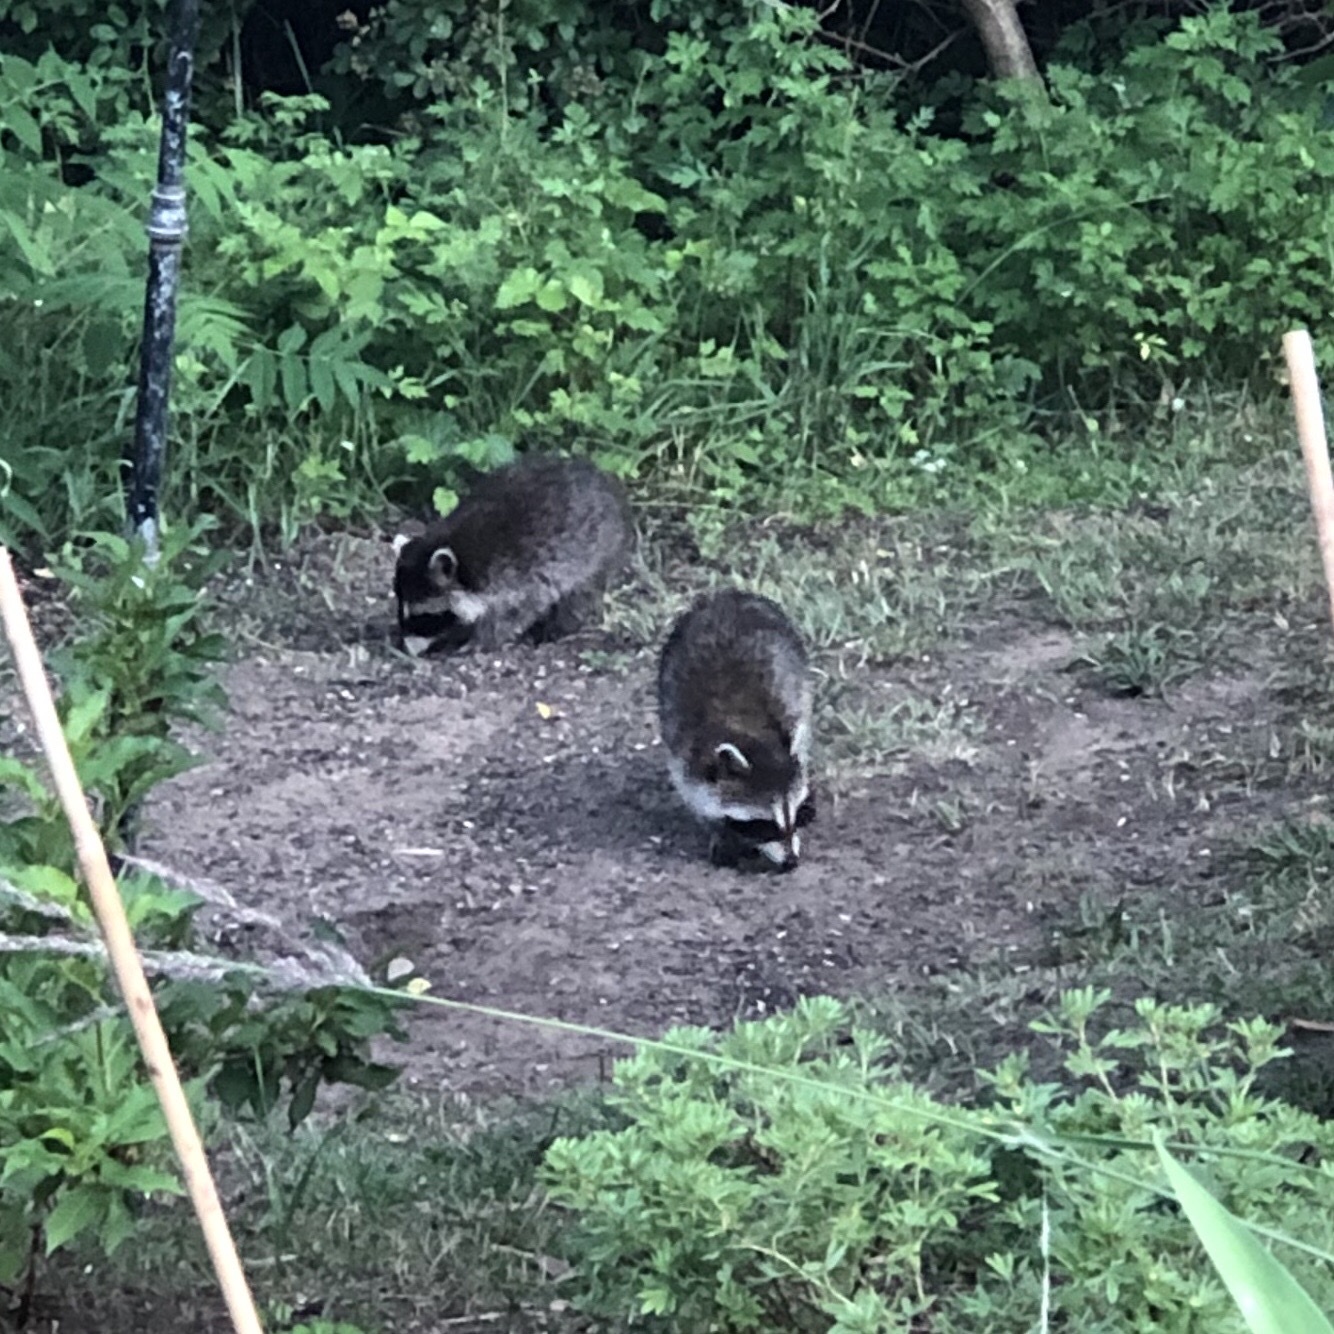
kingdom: Animalia
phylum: Chordata
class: Mammalia
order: Carnivora
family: Procyonidae
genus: Procyon
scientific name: Procyon lotor
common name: Raccoon
